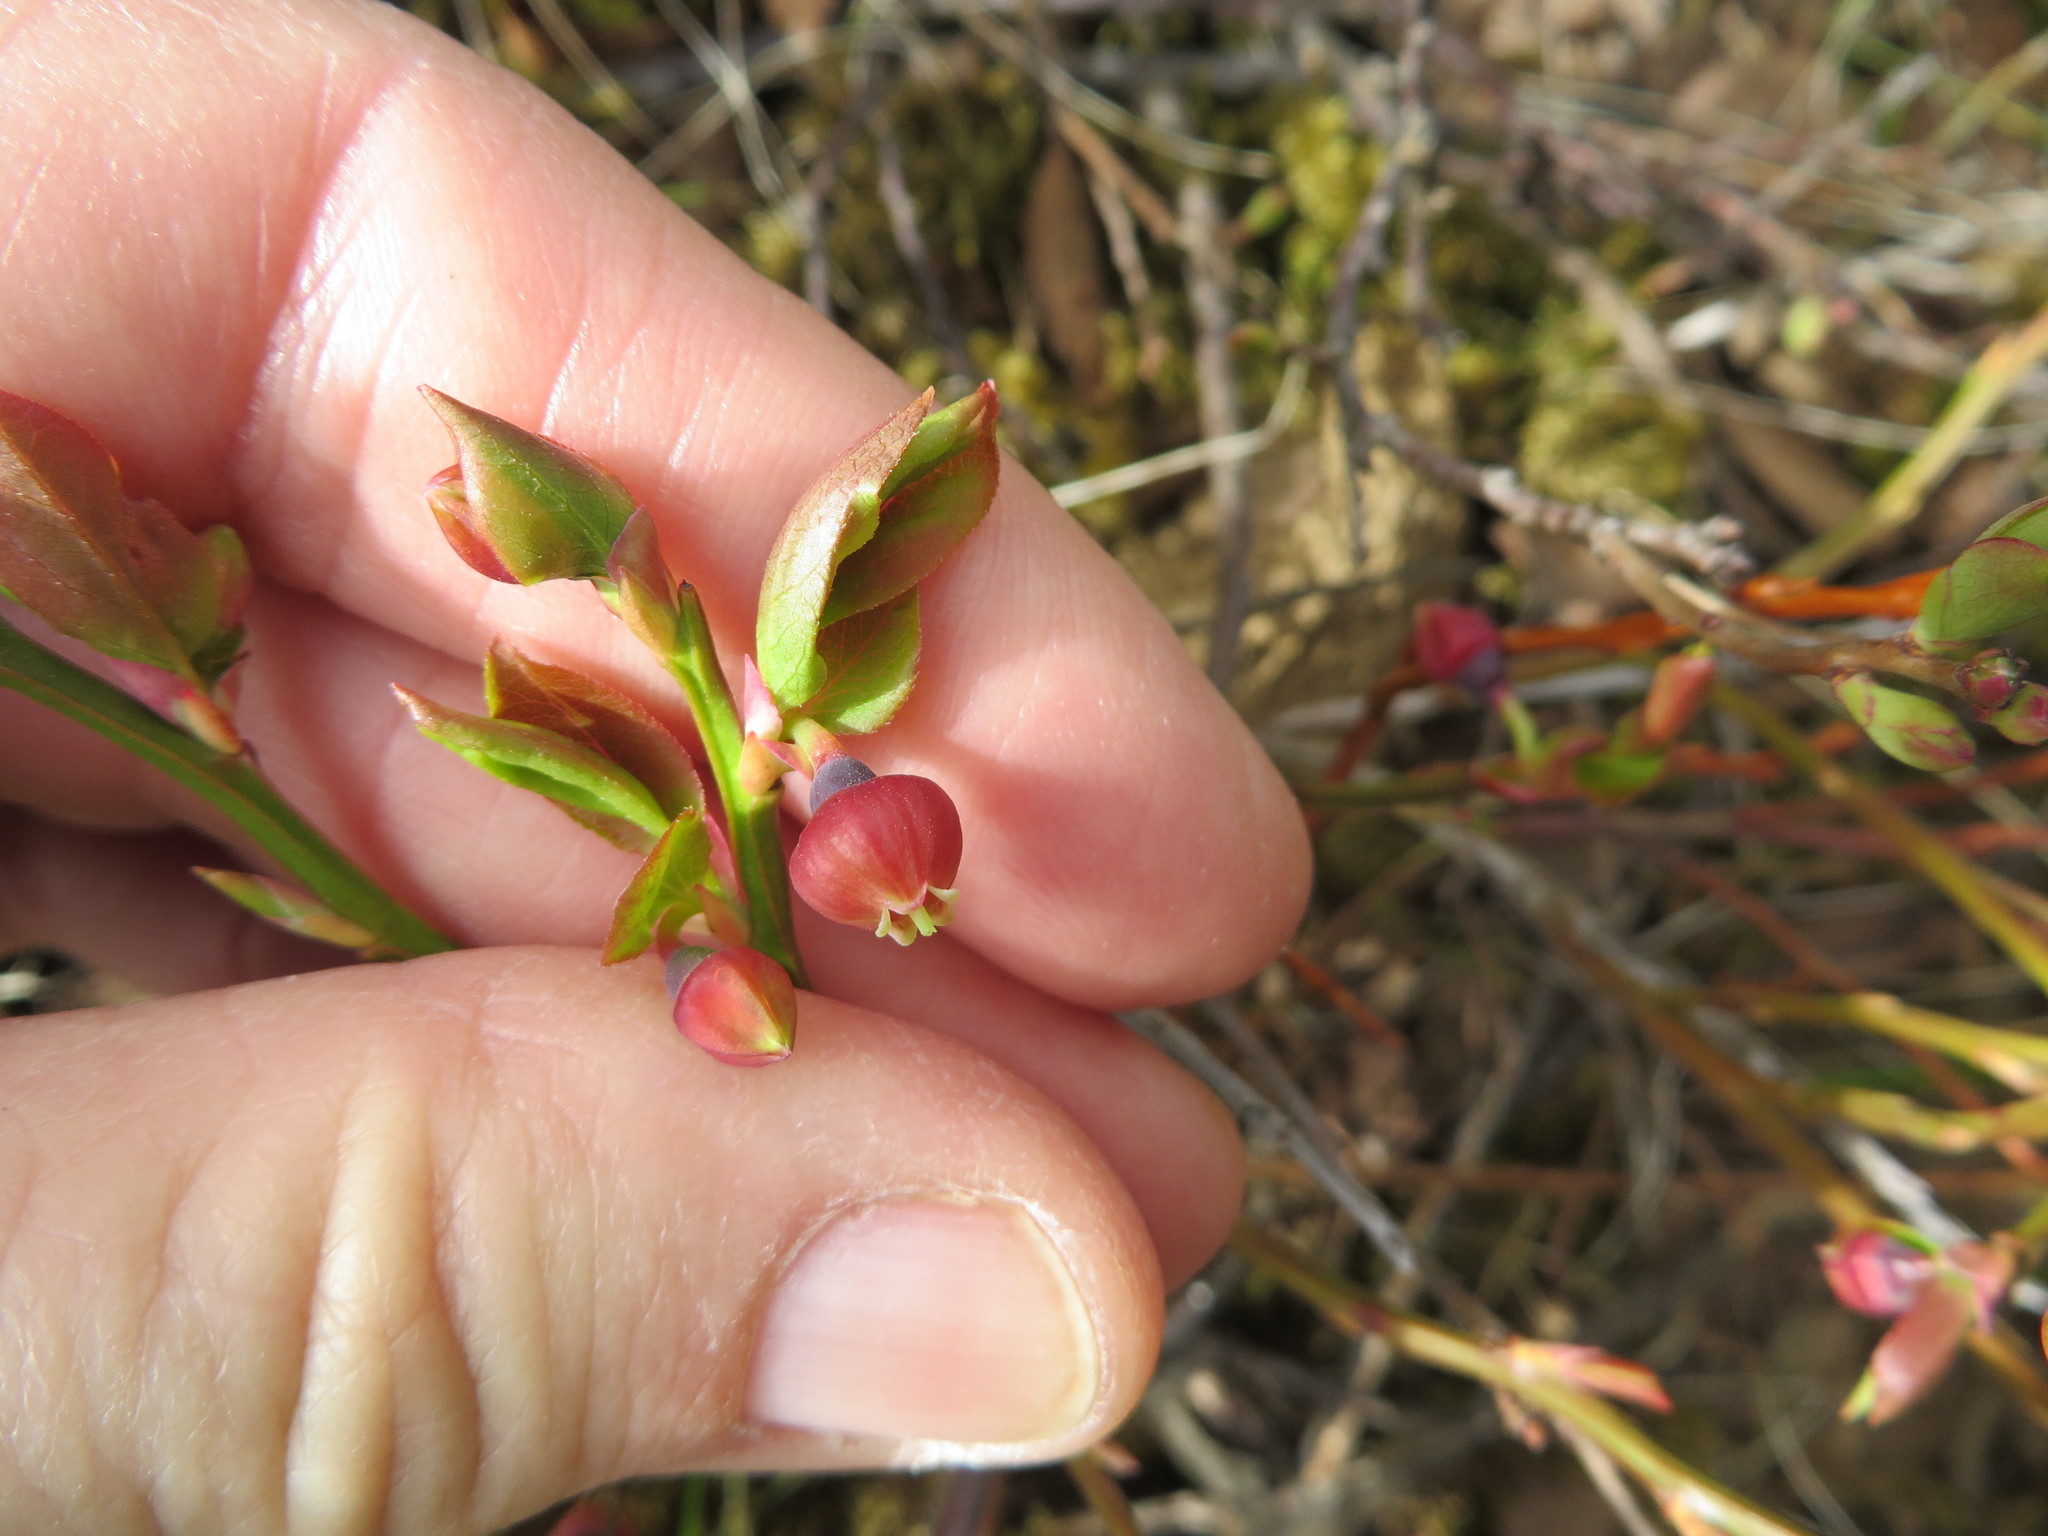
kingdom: Plantae
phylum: Tracheophyta
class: Magnoliopsida
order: Ericales
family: Ericaceae
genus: Vaccinium
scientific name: Vaccinium myrtillus
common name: Bilberry
